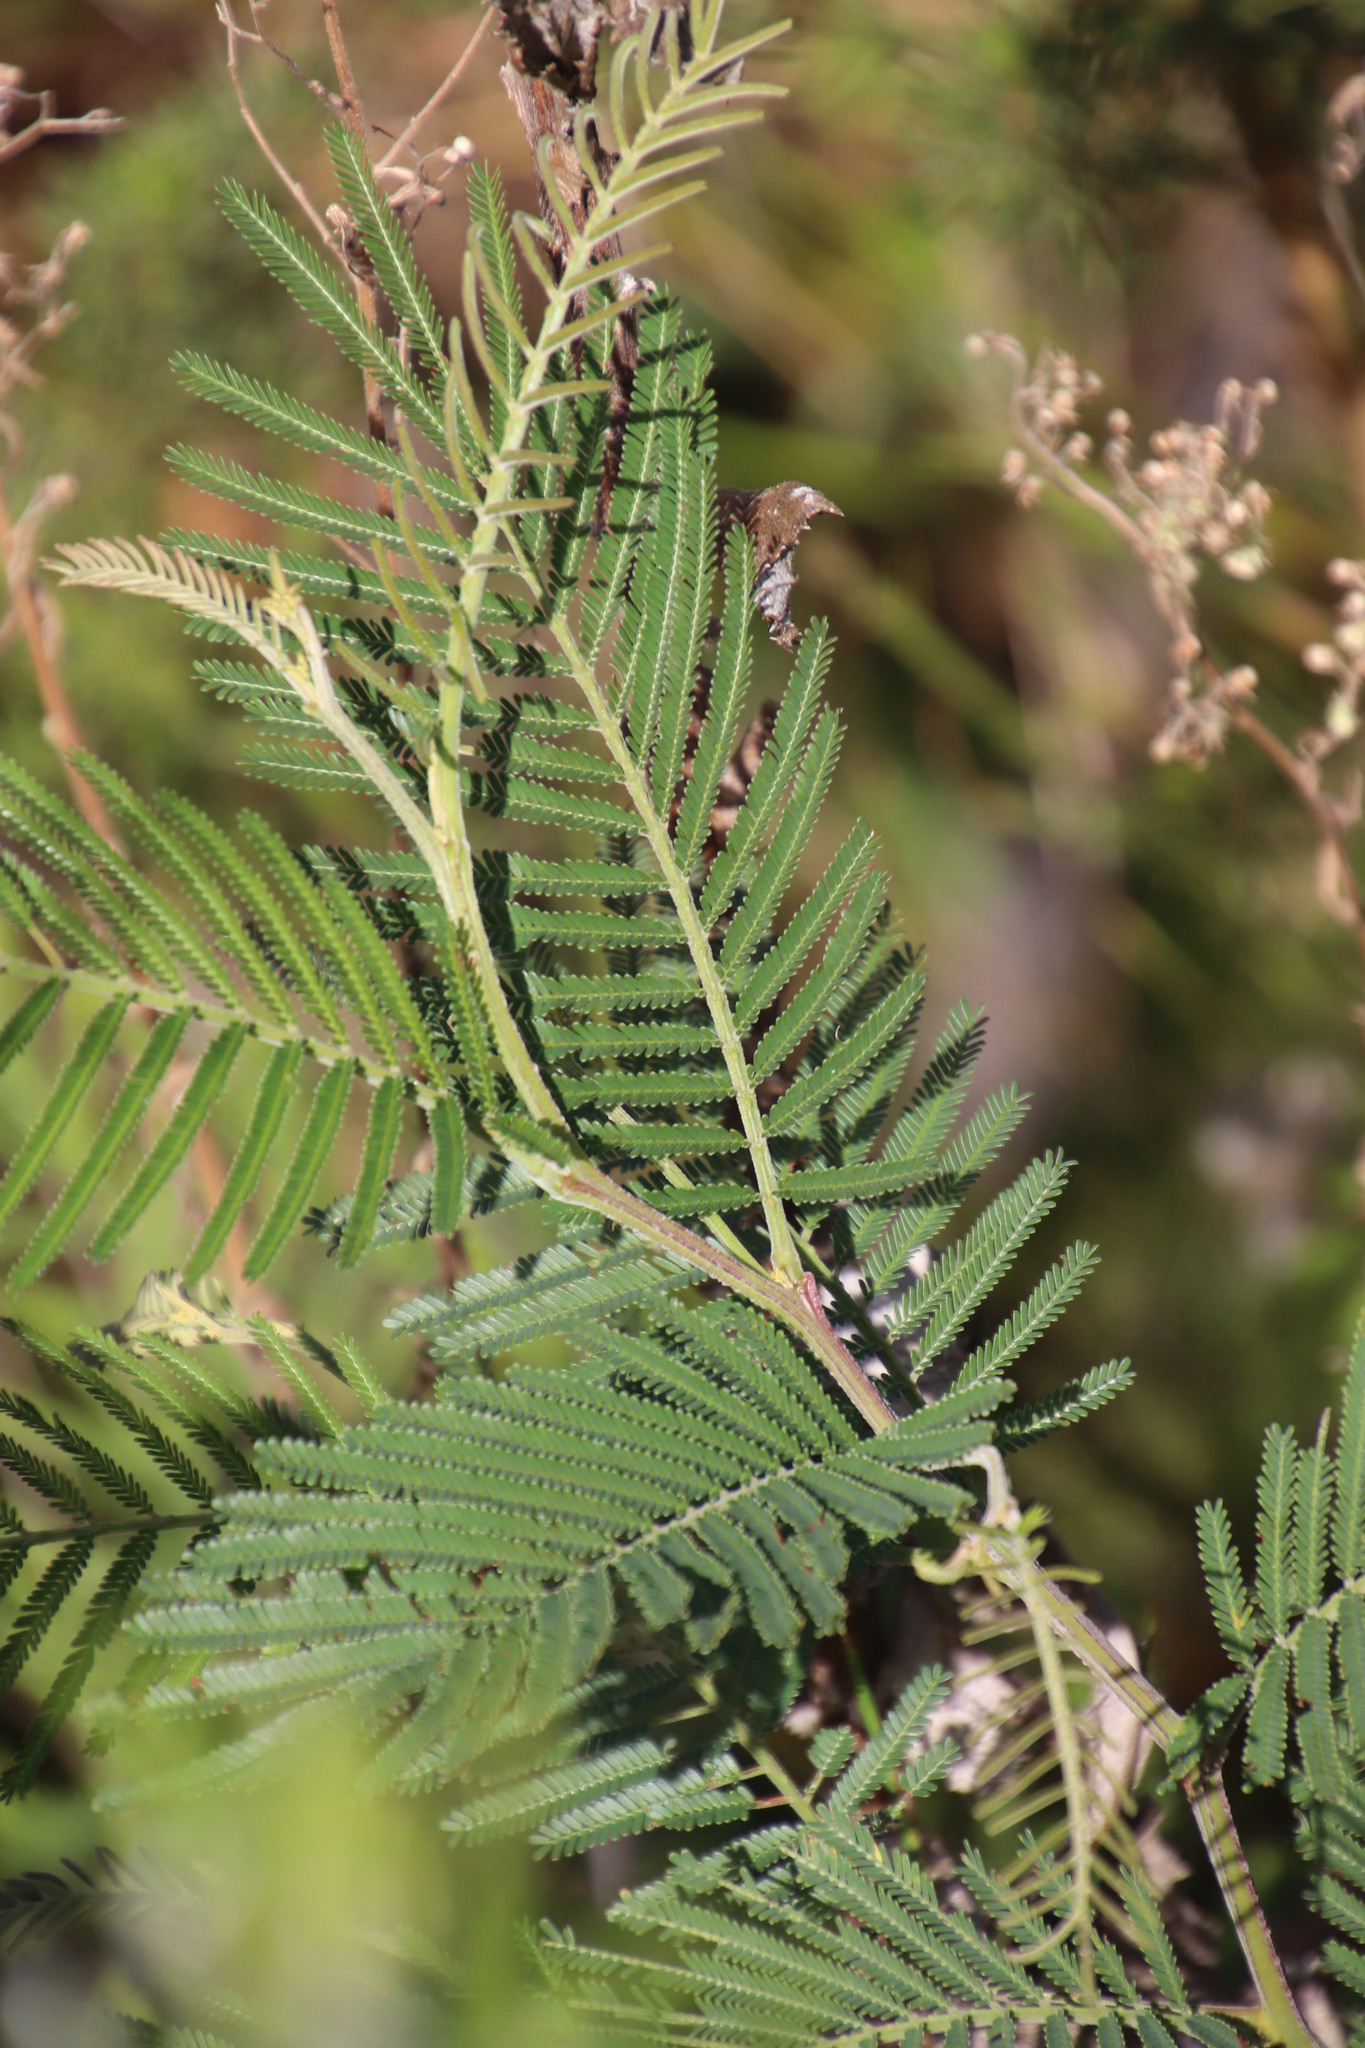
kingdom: Plantae
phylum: Tracheophyta
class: Magnoliopsida
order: Fabales
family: Fabaceae
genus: Acacia
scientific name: Acacia mearnsii
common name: Black wattle
